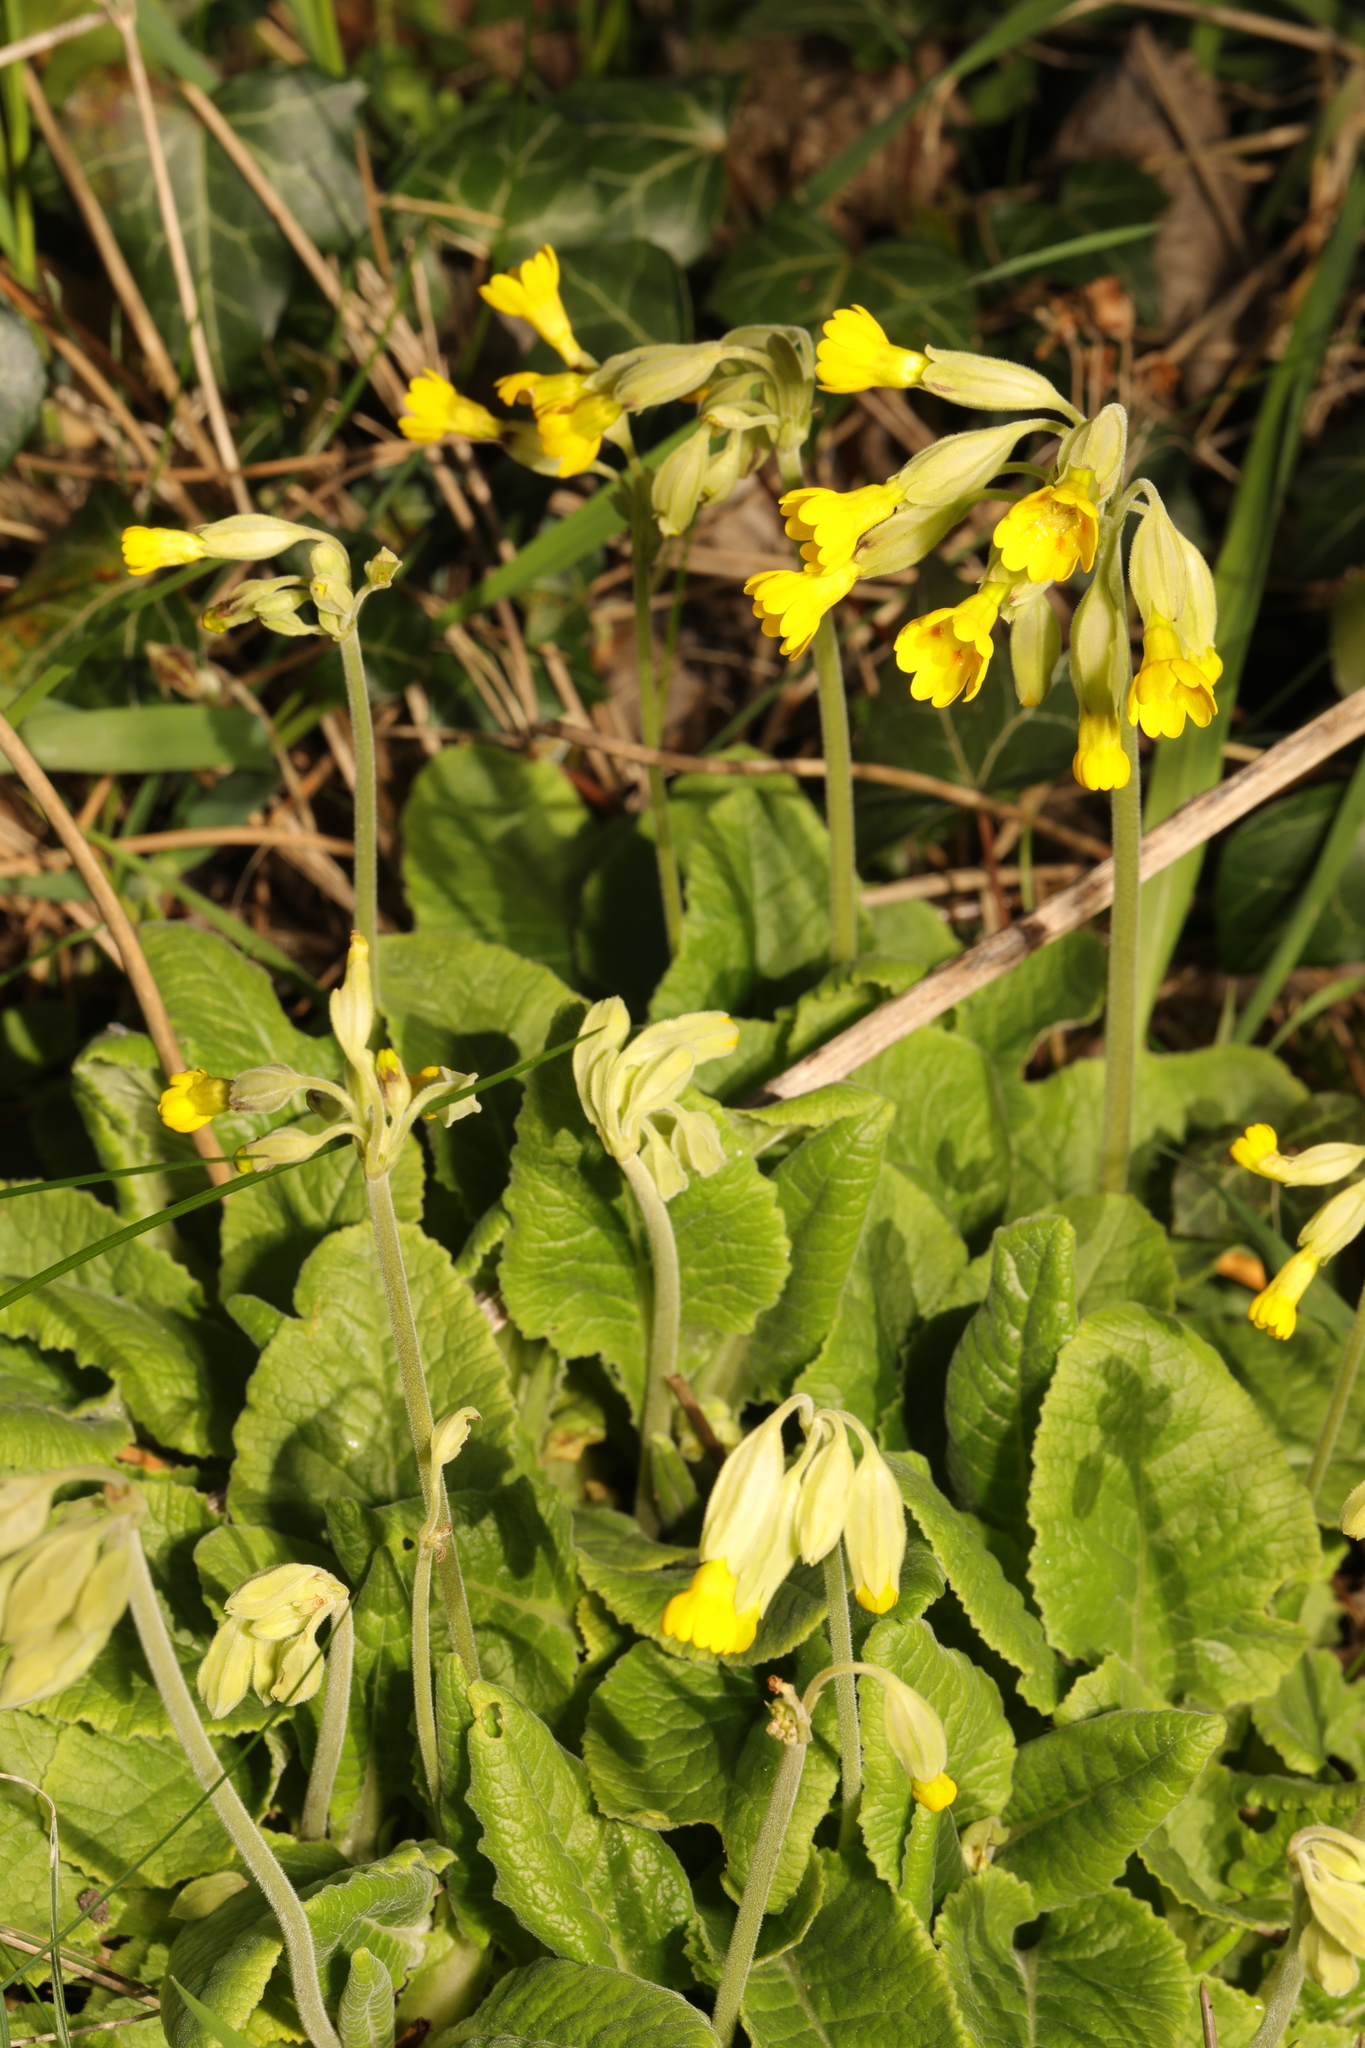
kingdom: Plantae
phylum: Tracheophyta
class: Magnoliopsida
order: Ericales
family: Primulaceae
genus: Primula
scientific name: Primula veris
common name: Cowslip
